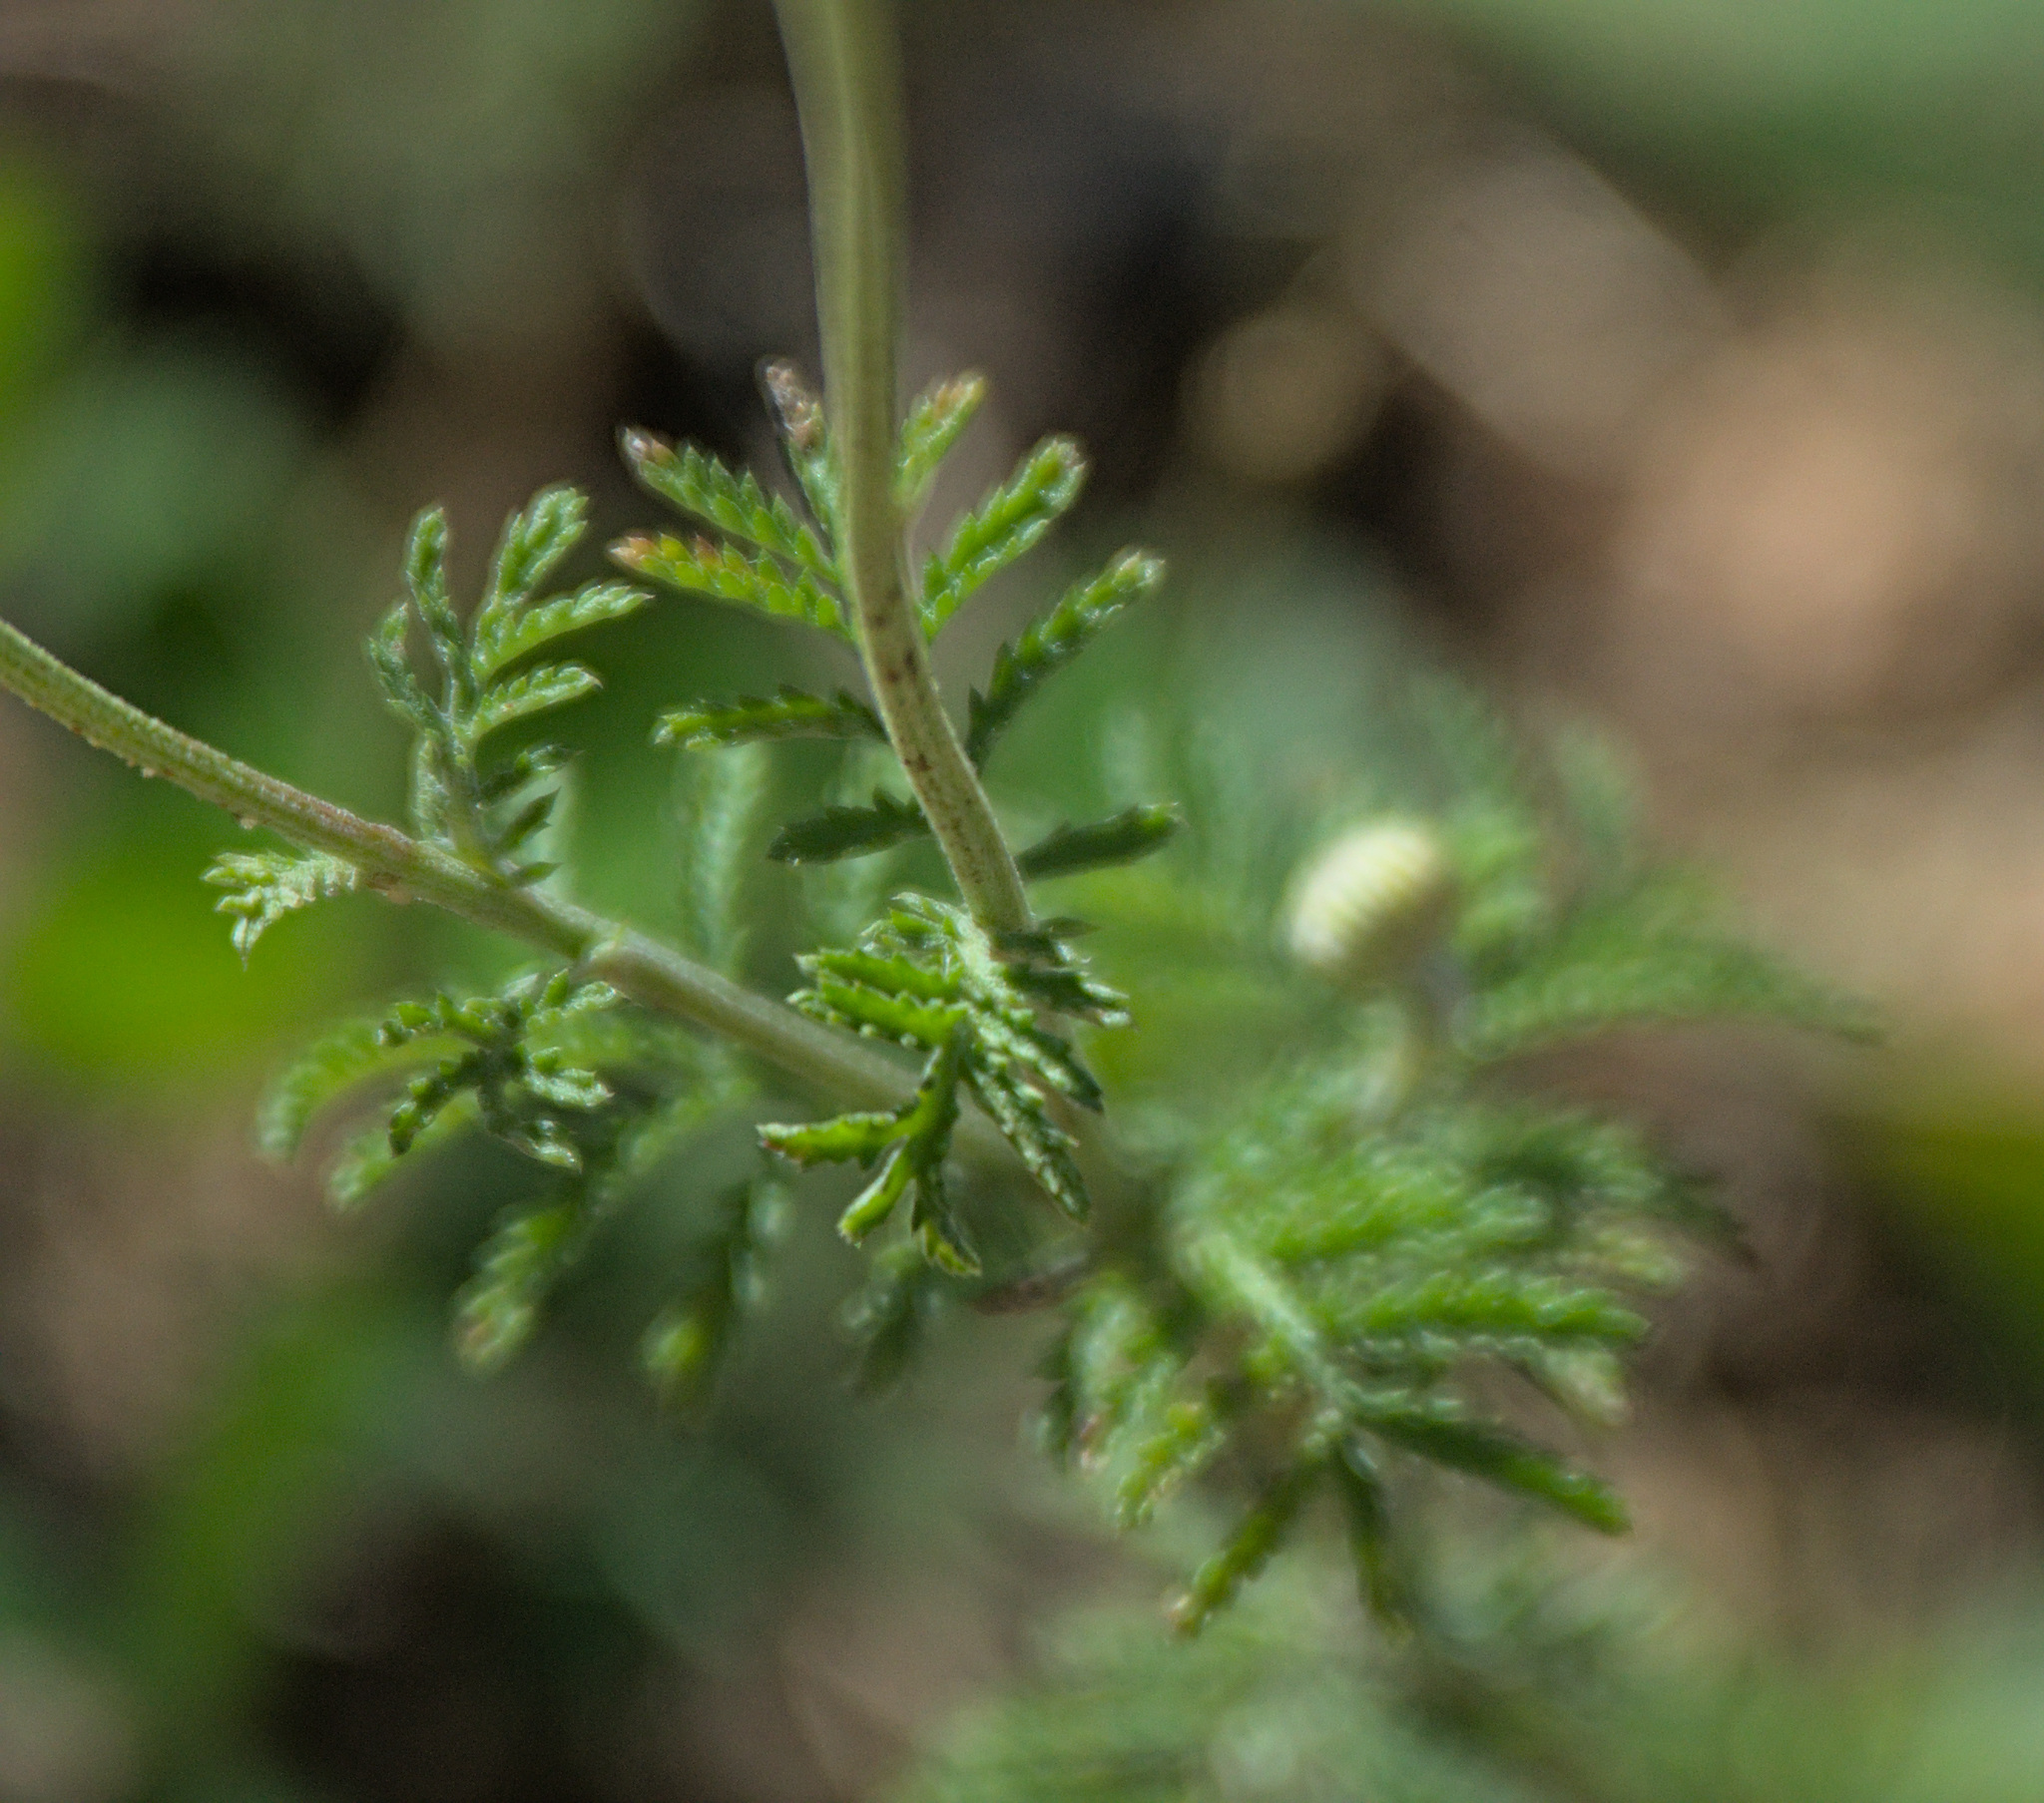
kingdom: Plantae
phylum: Tracheophyta
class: Magnoliopsida
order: Asterales
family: Asteraceae
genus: Cota
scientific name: Cota tinctoria
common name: Golden chamomile
